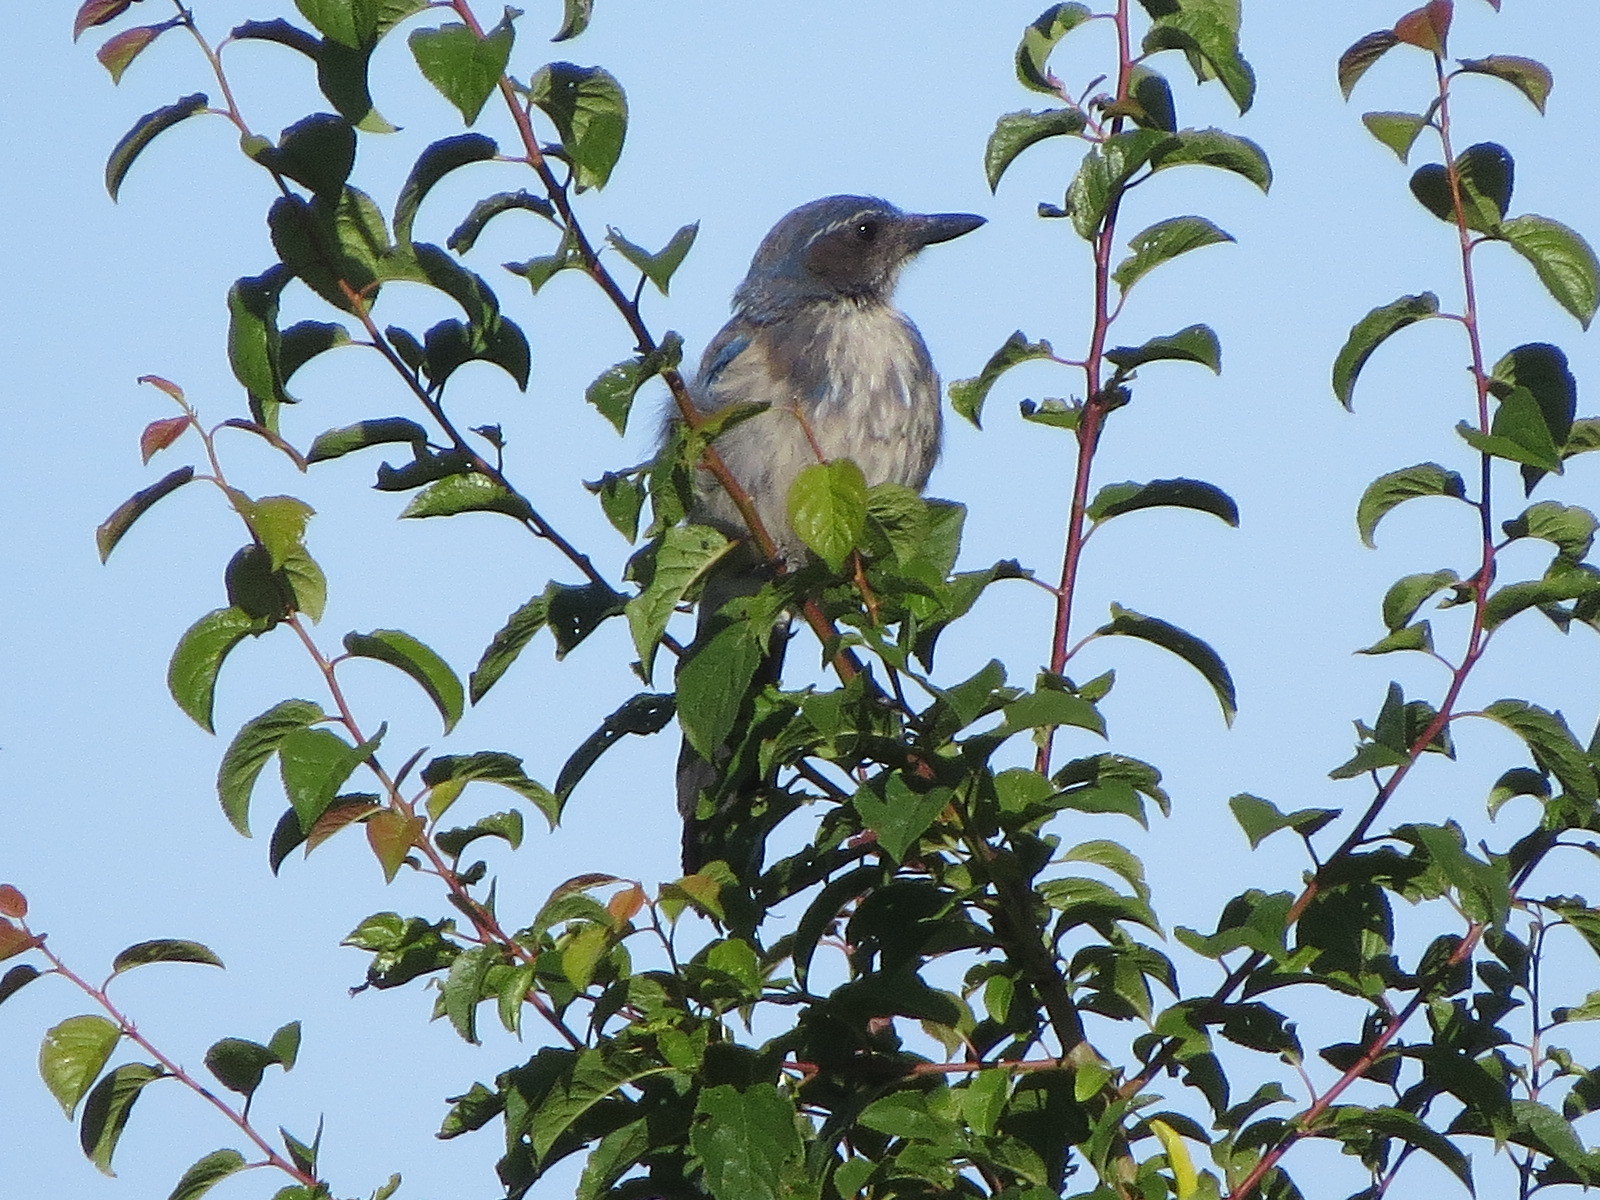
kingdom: Animalia
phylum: Chordata
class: Aves
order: Passeriformes
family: Corvidae
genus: Aphelocoma
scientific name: Aphelocoma californica
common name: California scrub-jay
